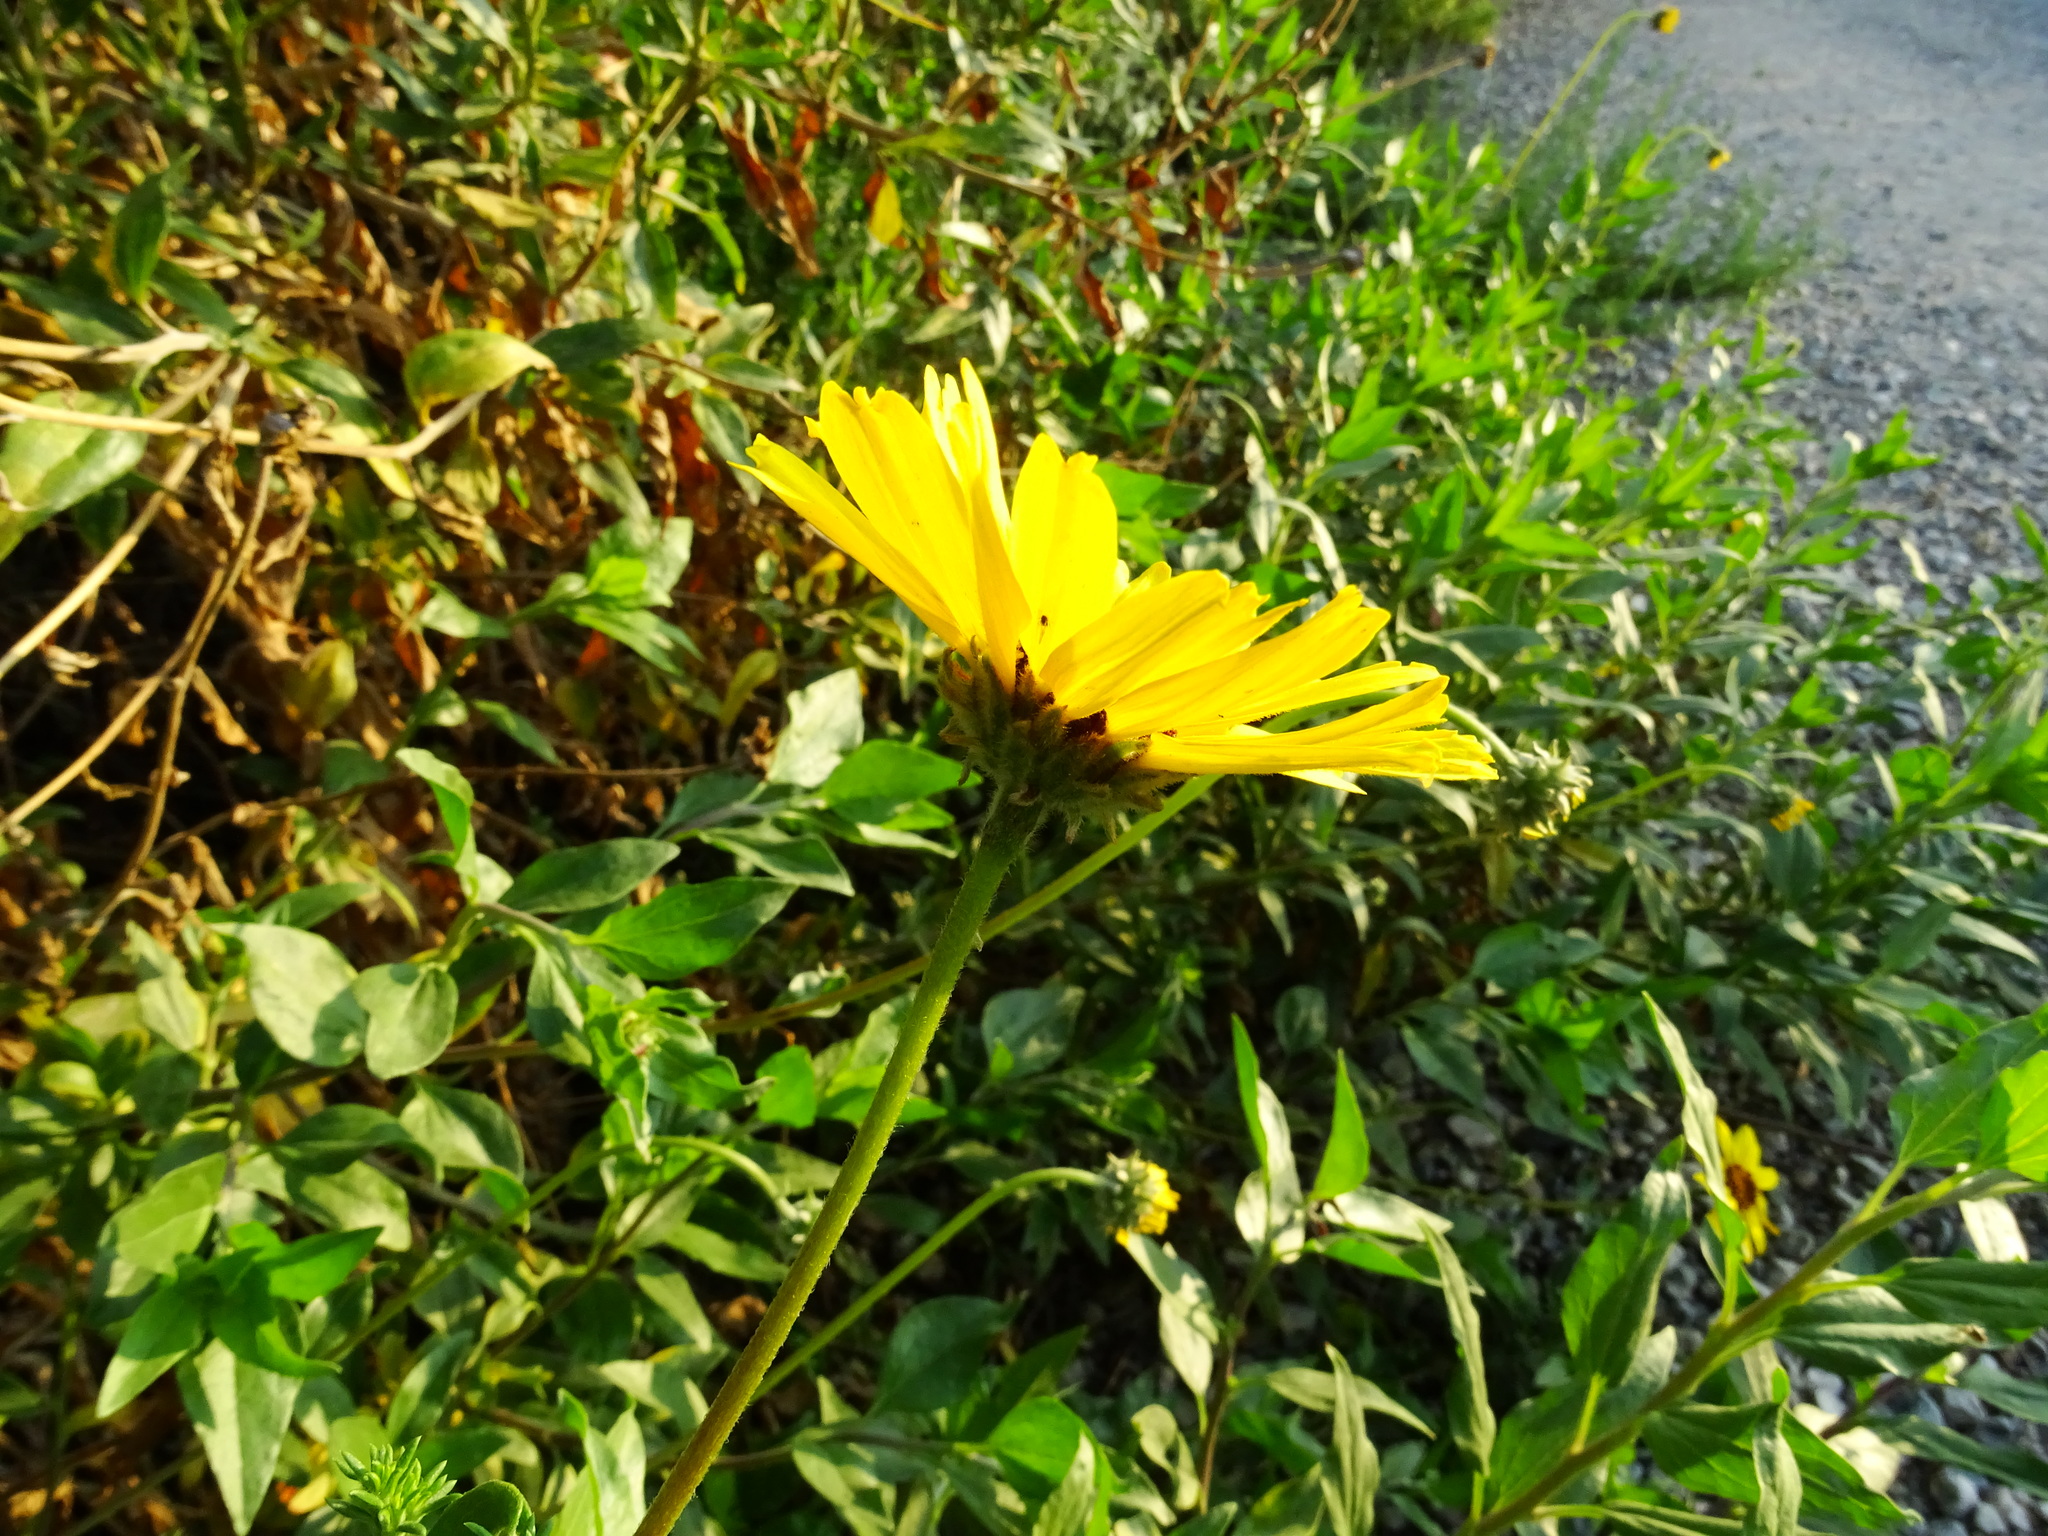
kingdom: Plantae
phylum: Tracheophyta
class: Magnoliopsida
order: Asterales
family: Asteraceae
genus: Encelia
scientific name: Encelia californica
